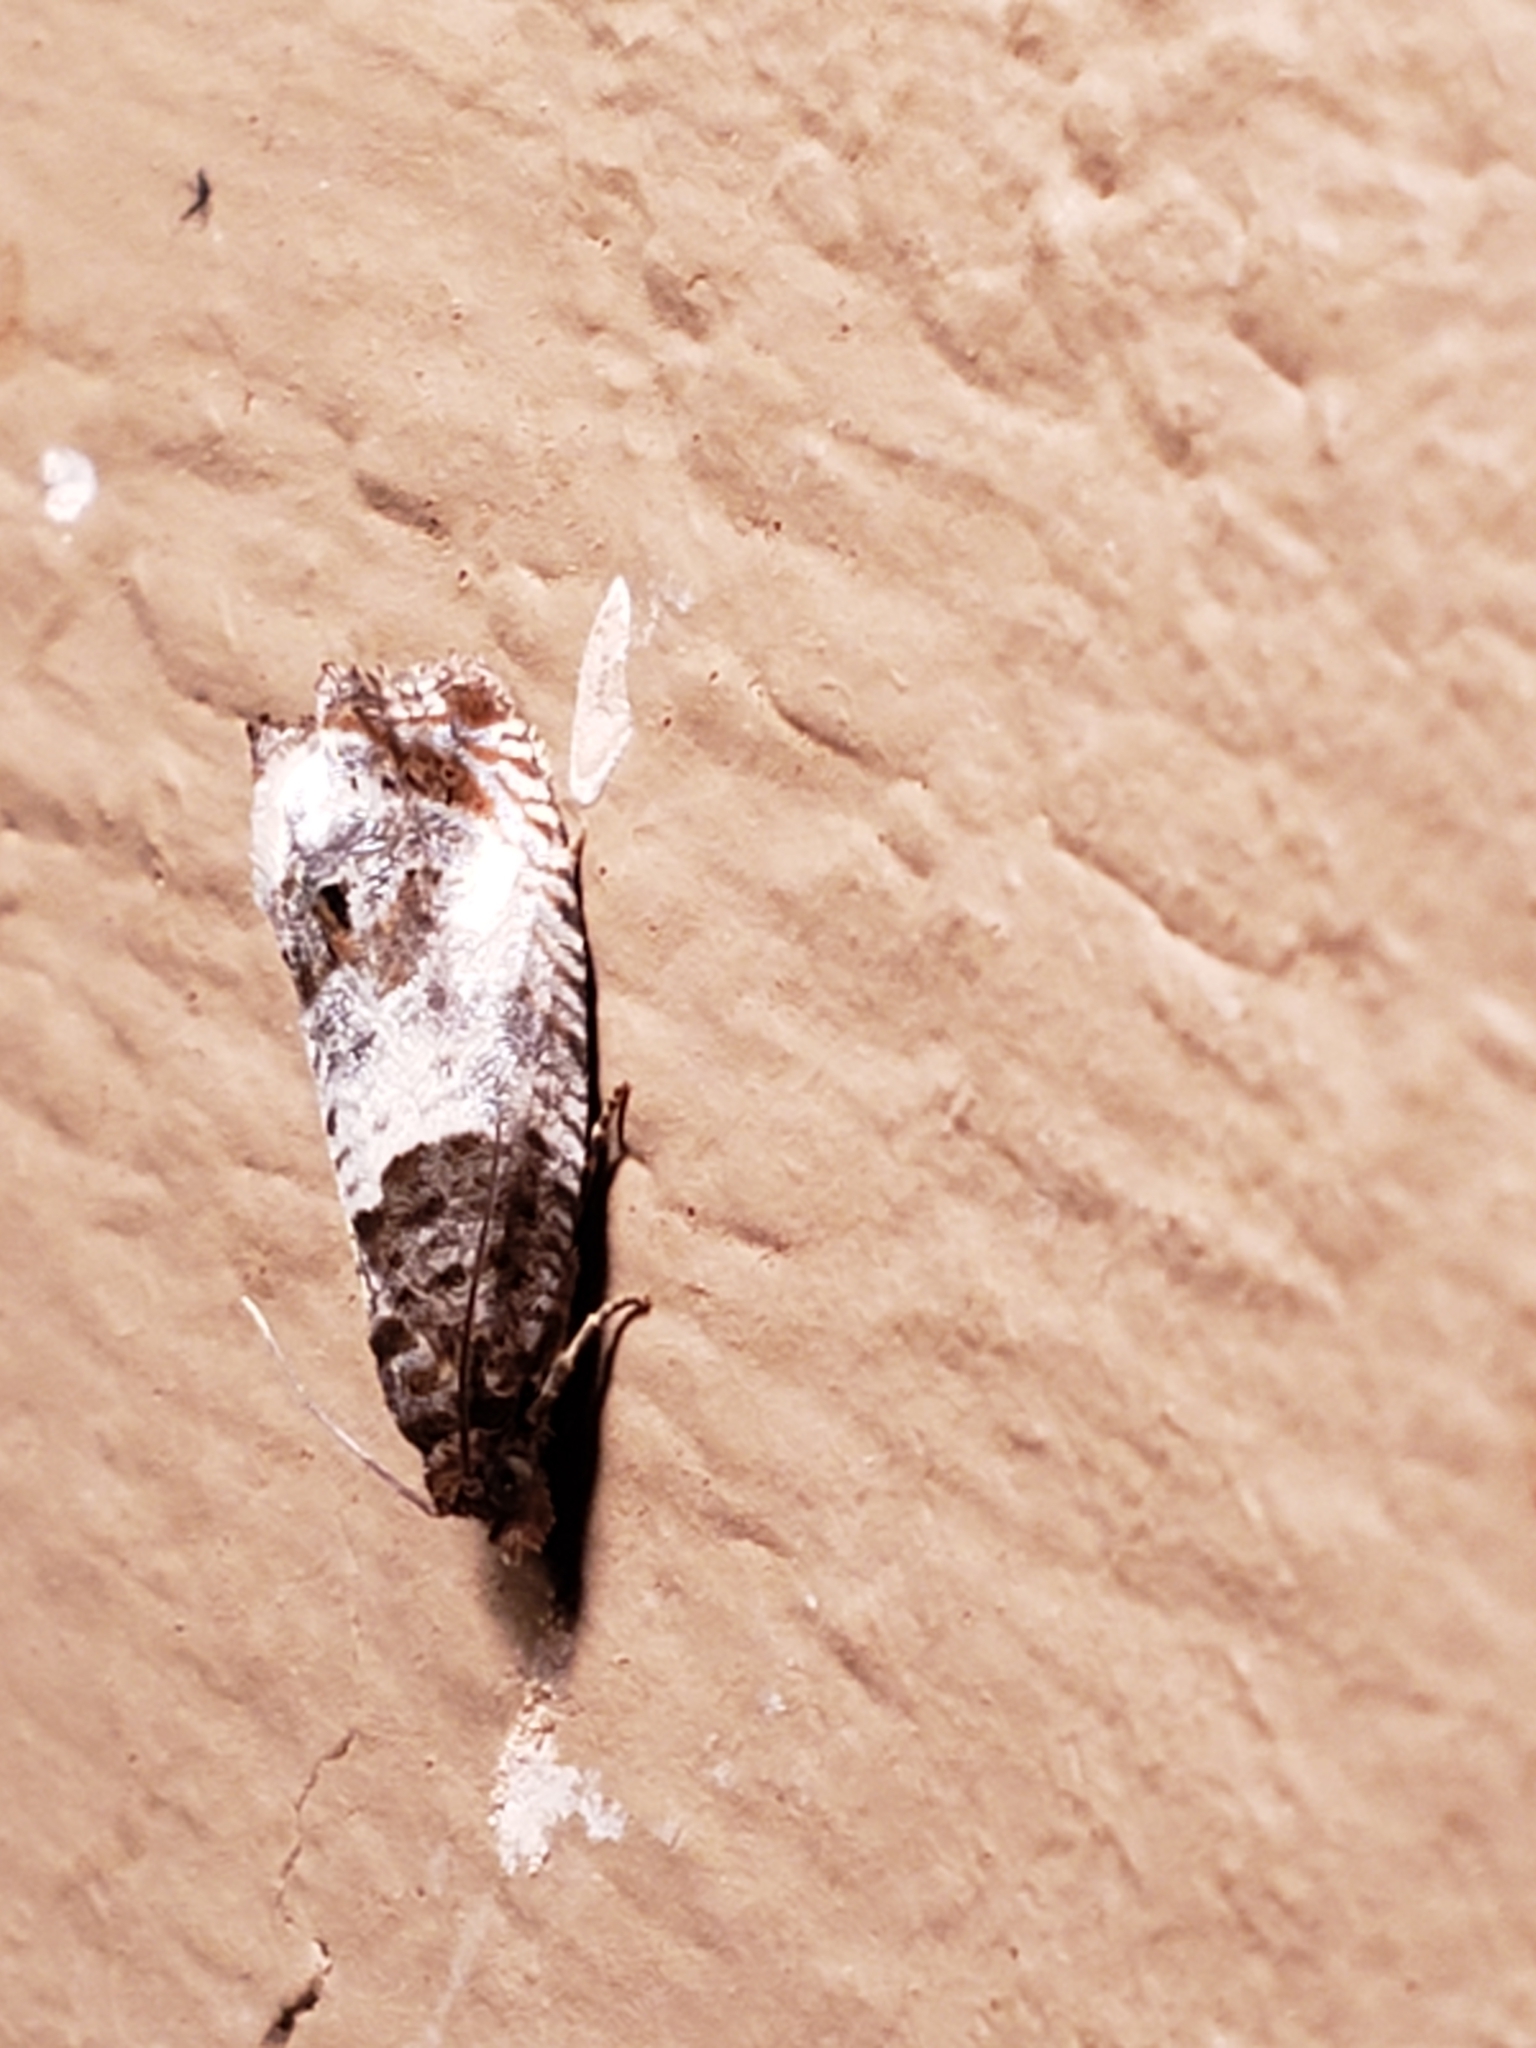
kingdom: Animalia
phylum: Arthropoda
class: Insecta
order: Lepidoptera
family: Tortricidae
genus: Notocelia
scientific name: Notocelia rosaecolana
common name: Common rose bell
